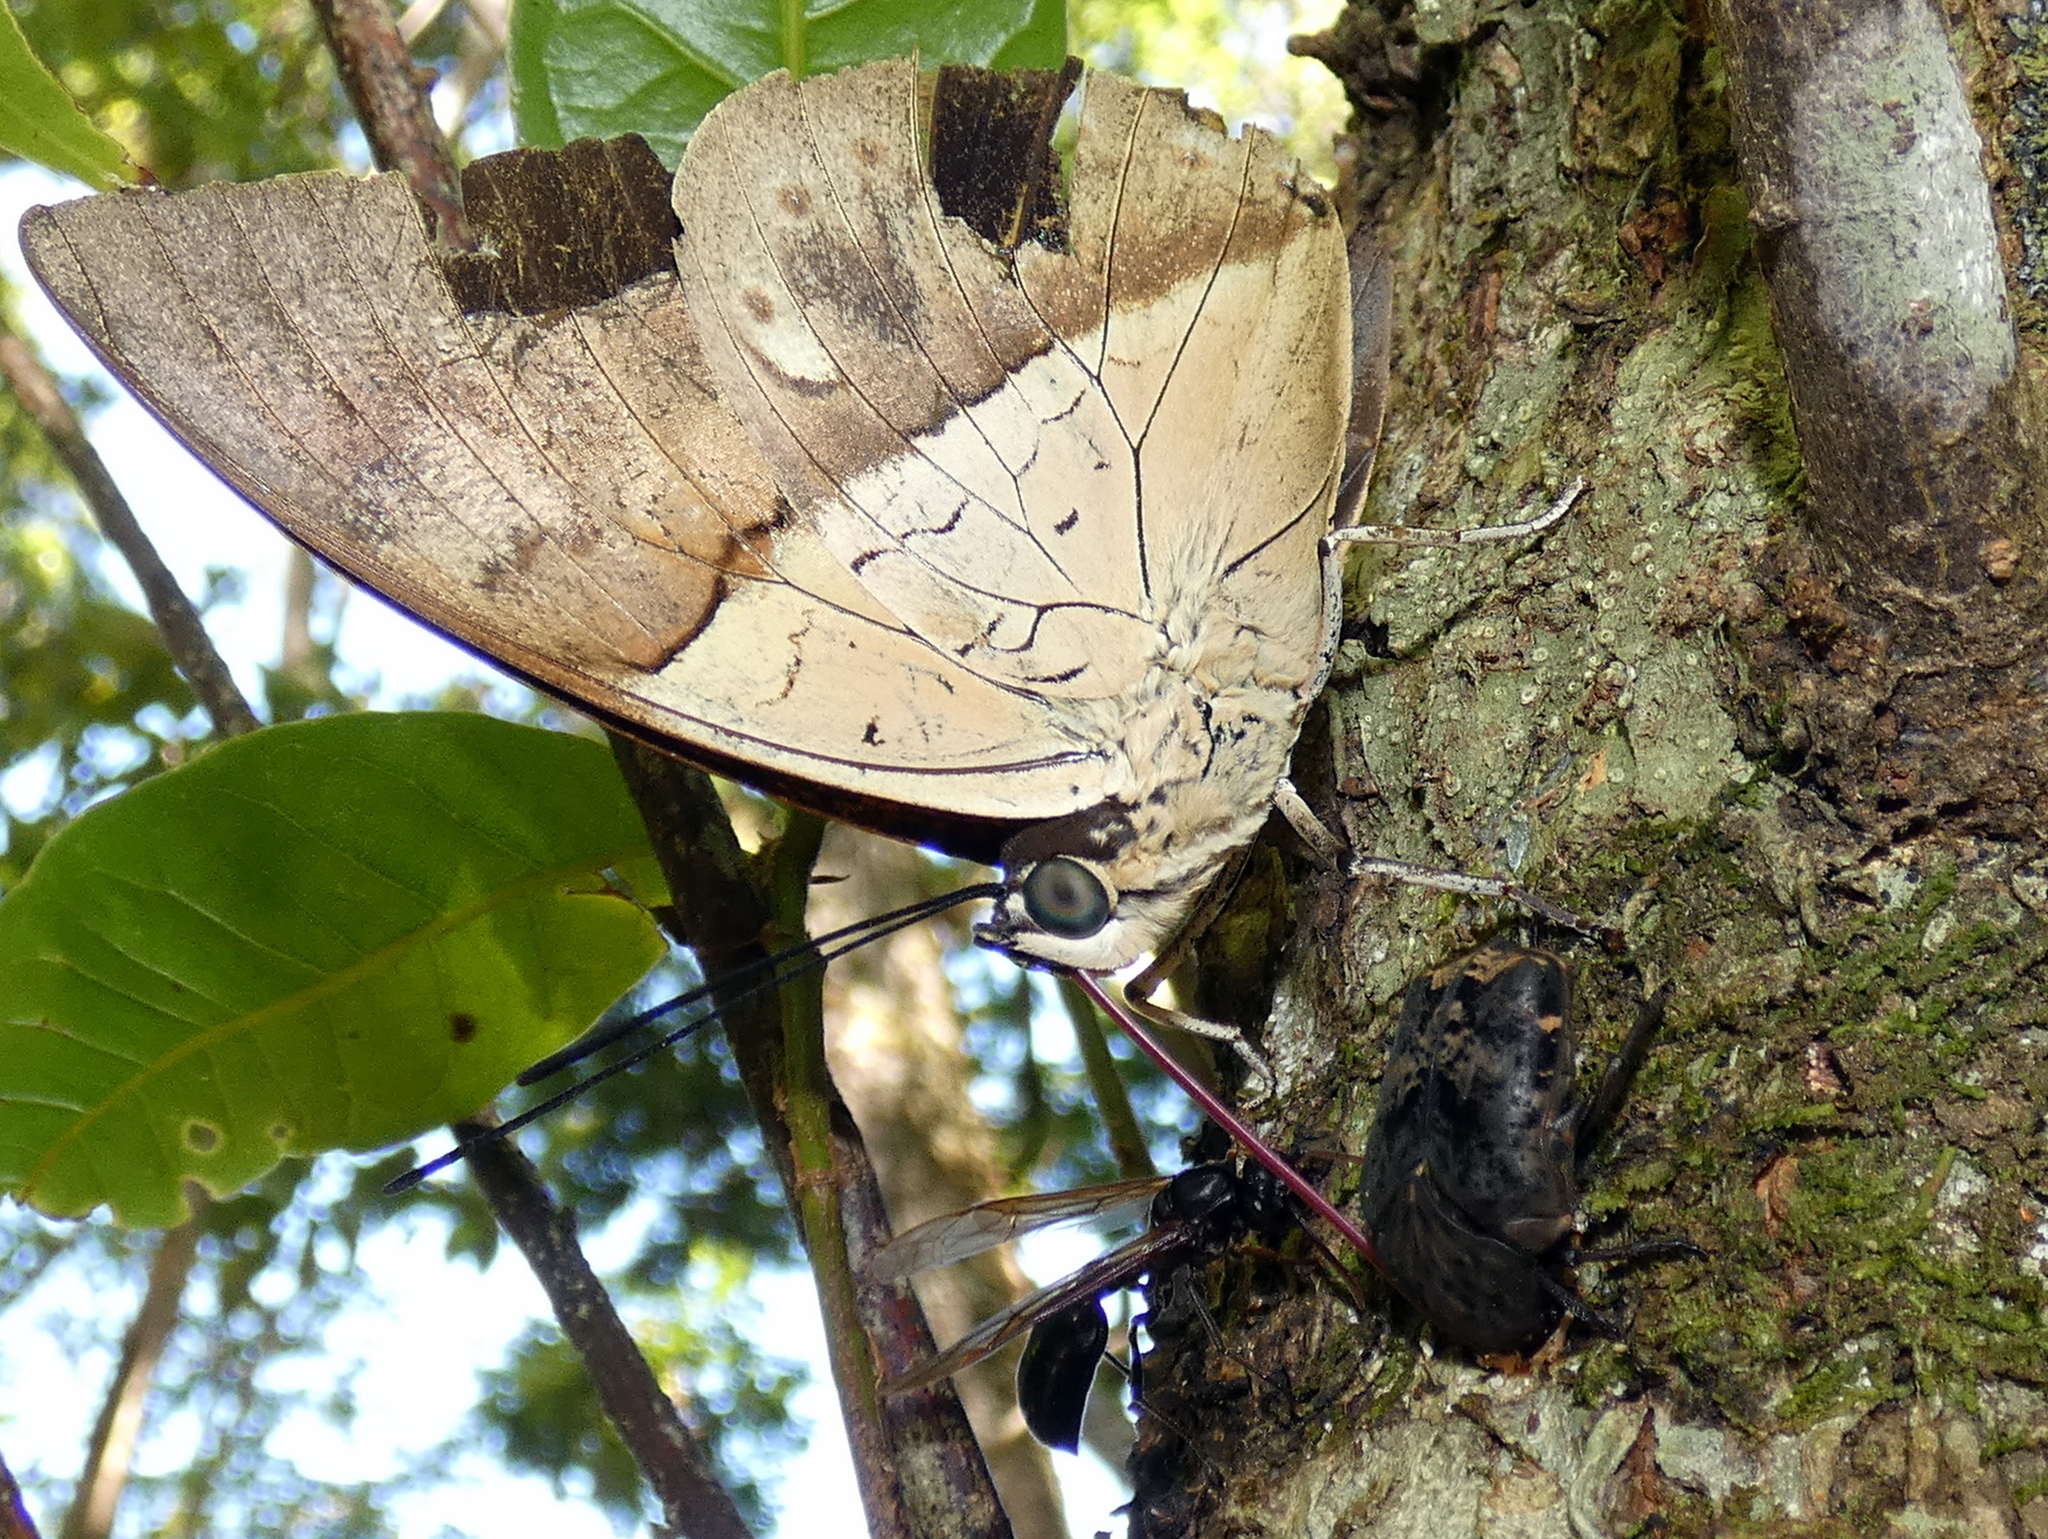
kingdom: Animalia
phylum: Arthropoda
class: Insecta
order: Lepidoptera
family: Nymphalidae
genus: Prepona
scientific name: Prepona meander
